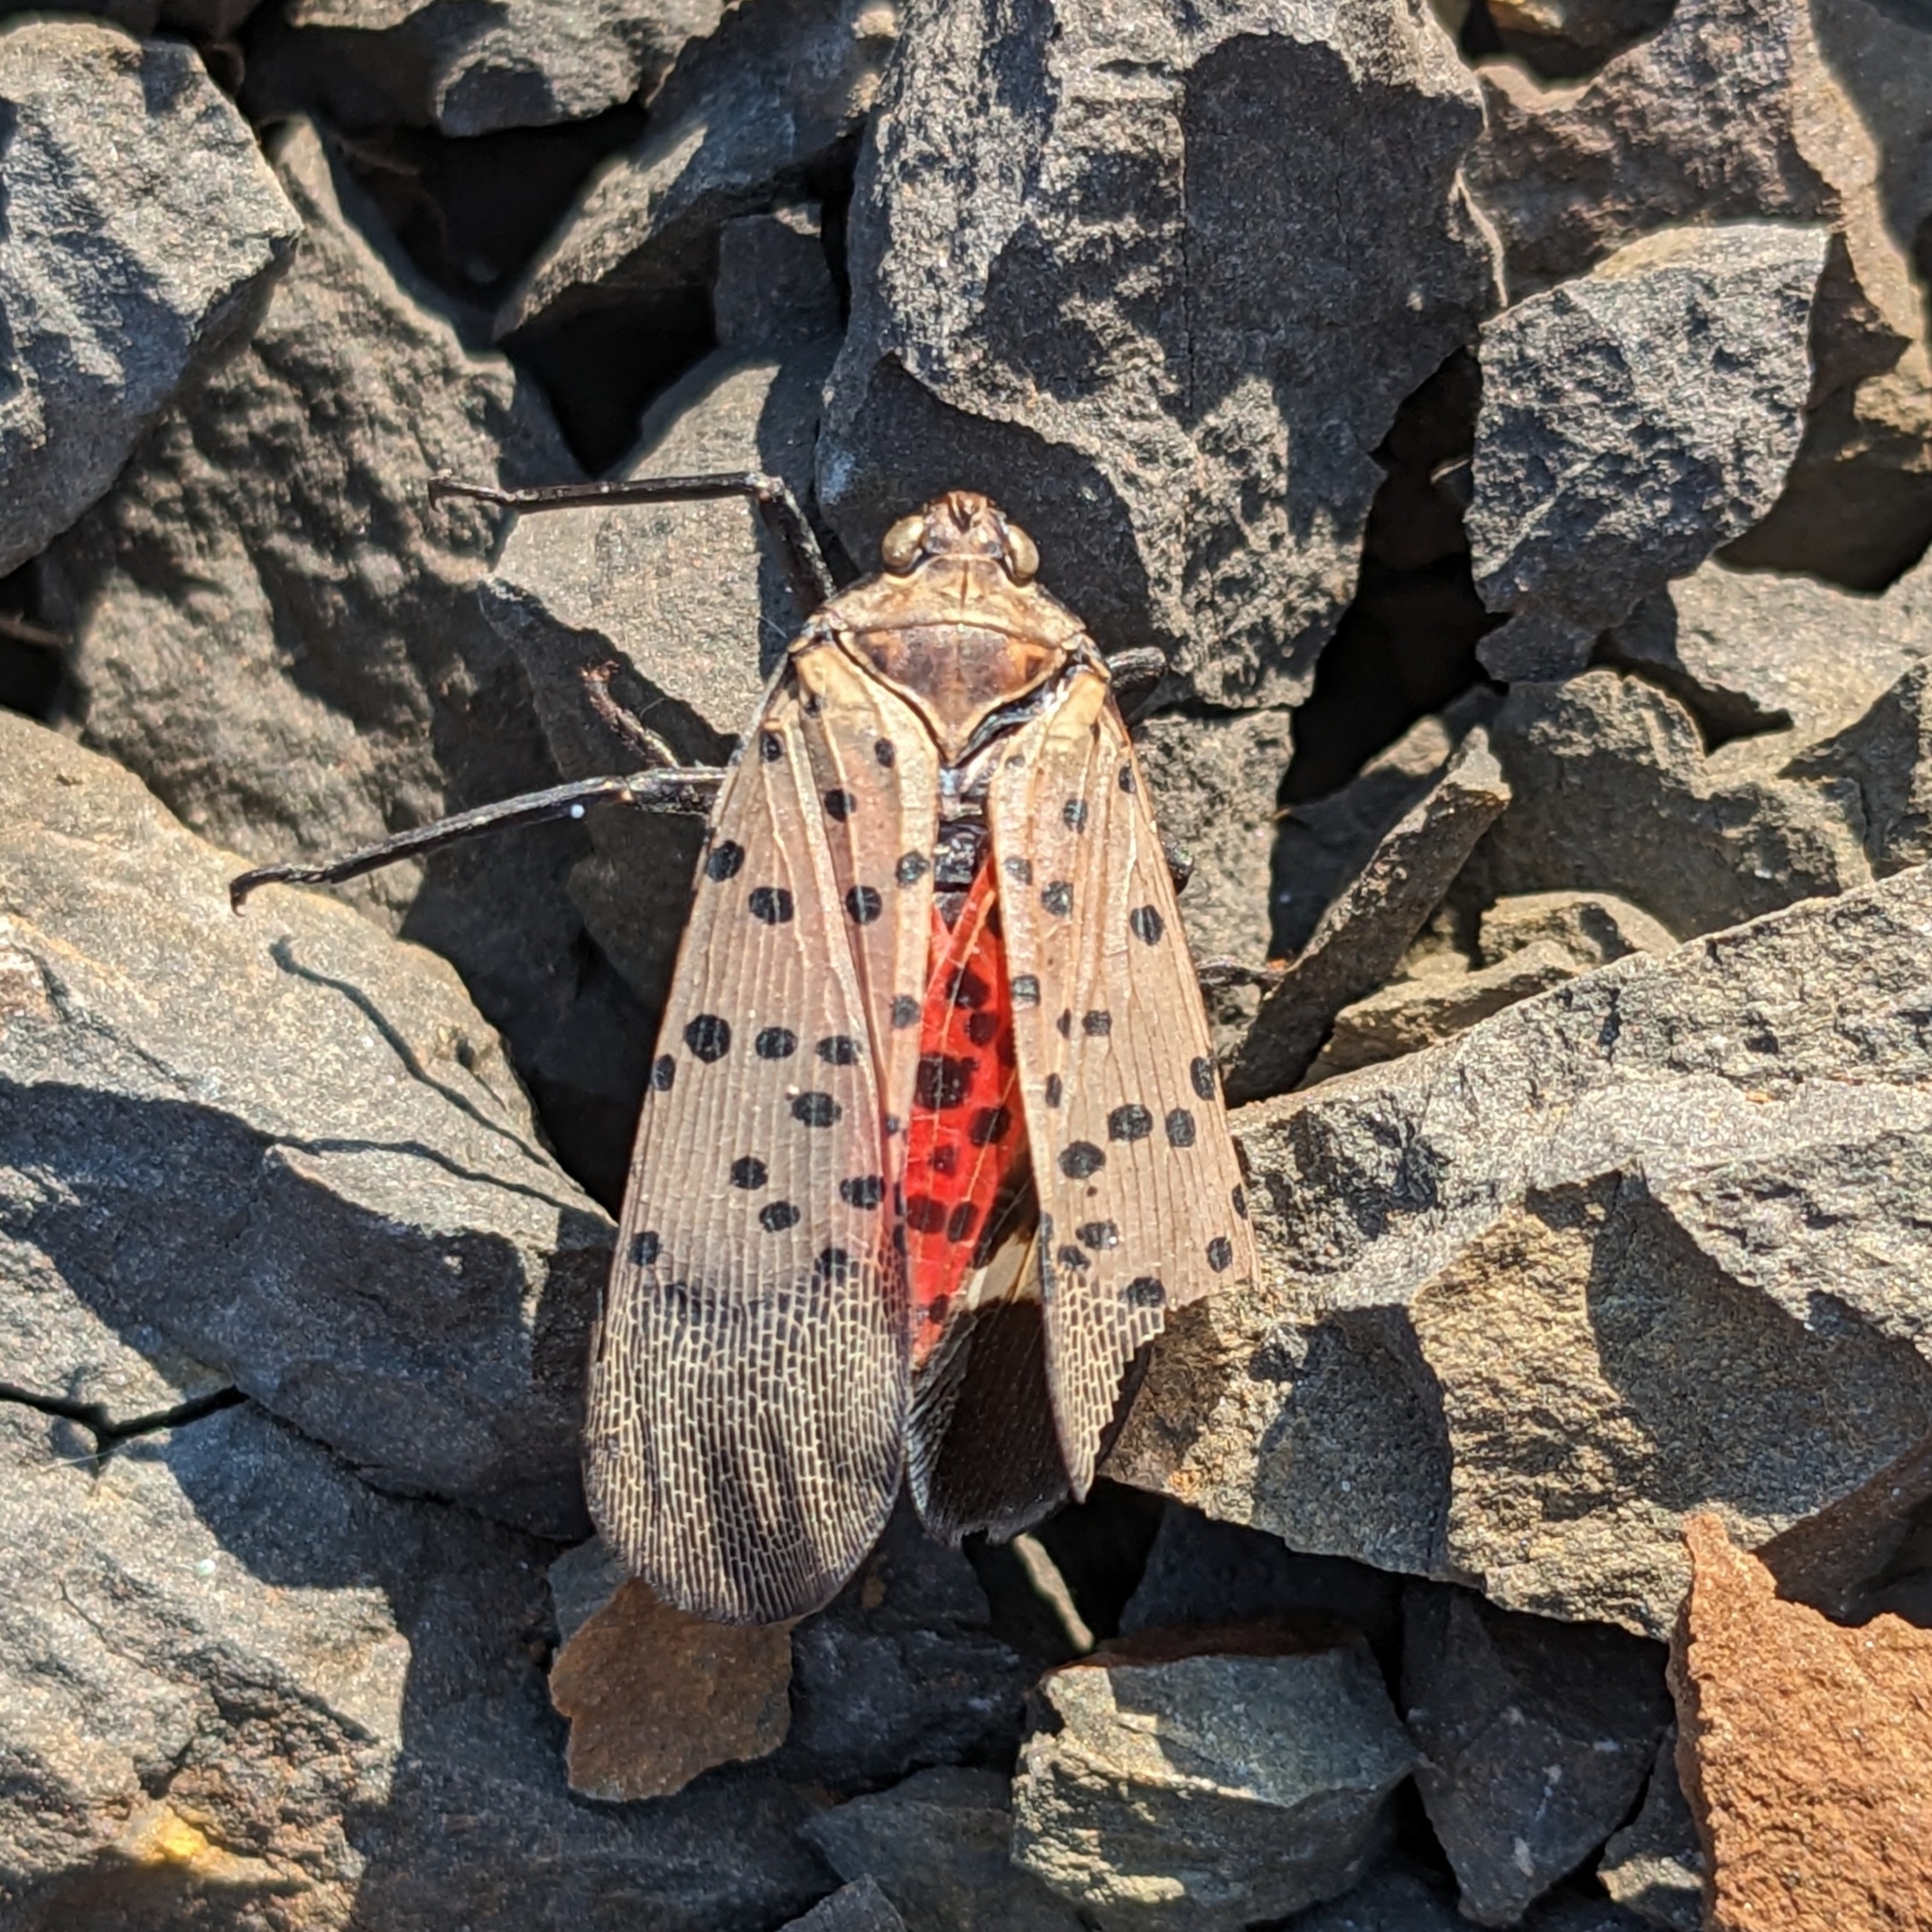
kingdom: Animalia
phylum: Arthropoda
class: Insecta
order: Hemiptera
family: Fulgoridae
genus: Lycorma
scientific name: Lycorma delicatula
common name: Spotted lanternfly
